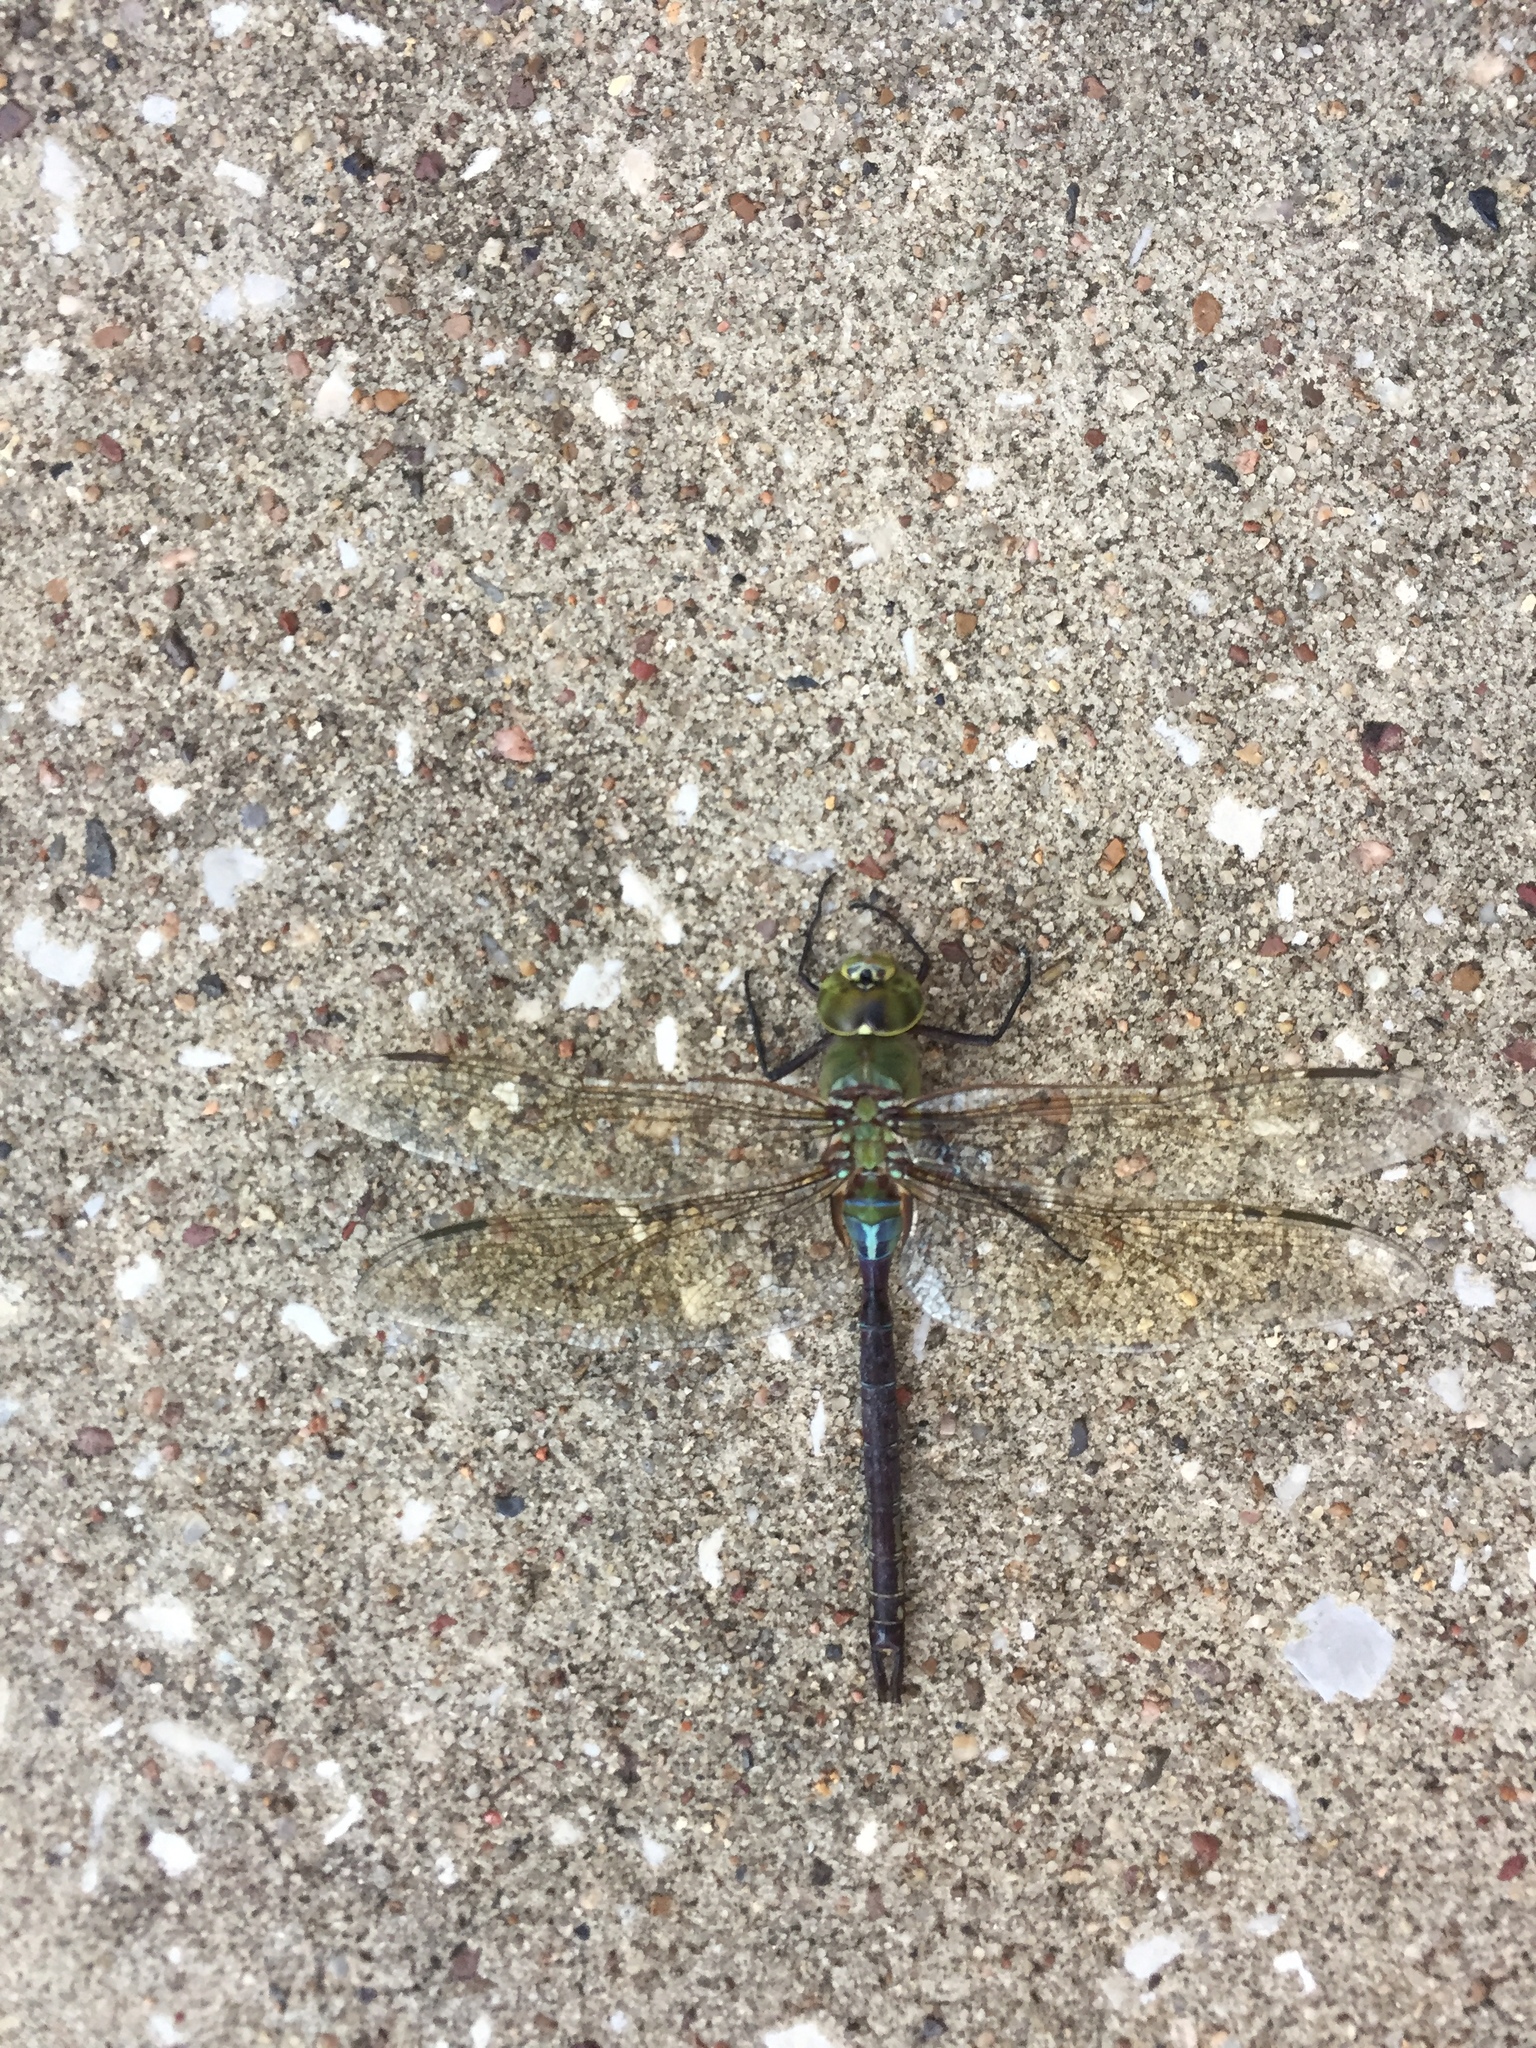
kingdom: Animalia
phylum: Arthropoda
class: Insecta
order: Odonata
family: Aeshnidae
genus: Anax
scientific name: Anax junius
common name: Common green darner
